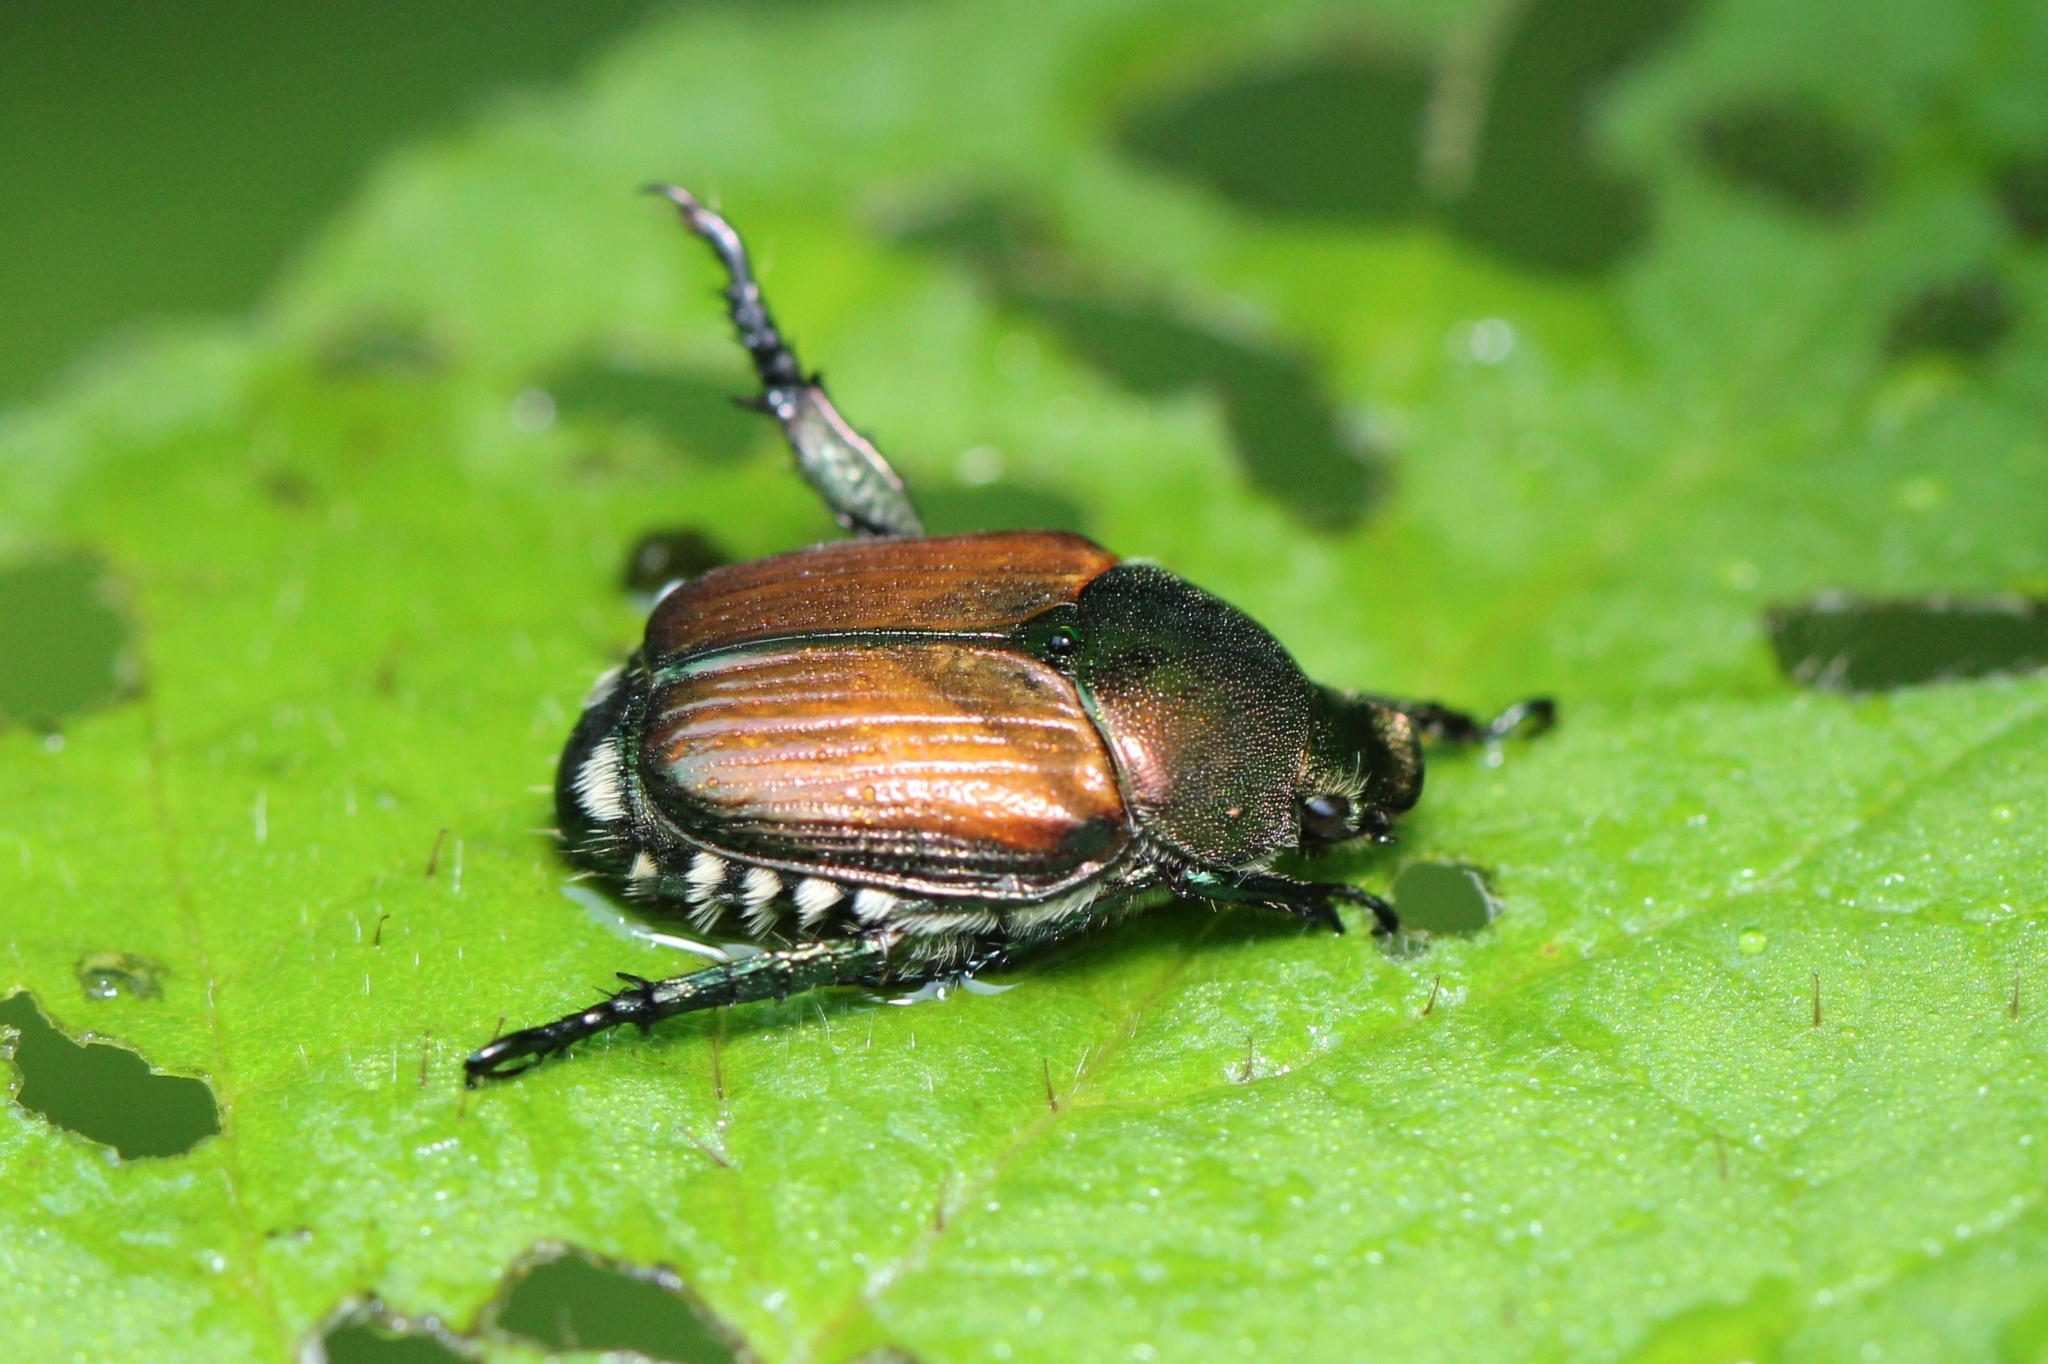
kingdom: Animalia
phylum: Arthropoda
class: Insecta
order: Coleoptera
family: Scarabaeidae
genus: Popillia
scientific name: Popillia japonica
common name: Japanese beetle
